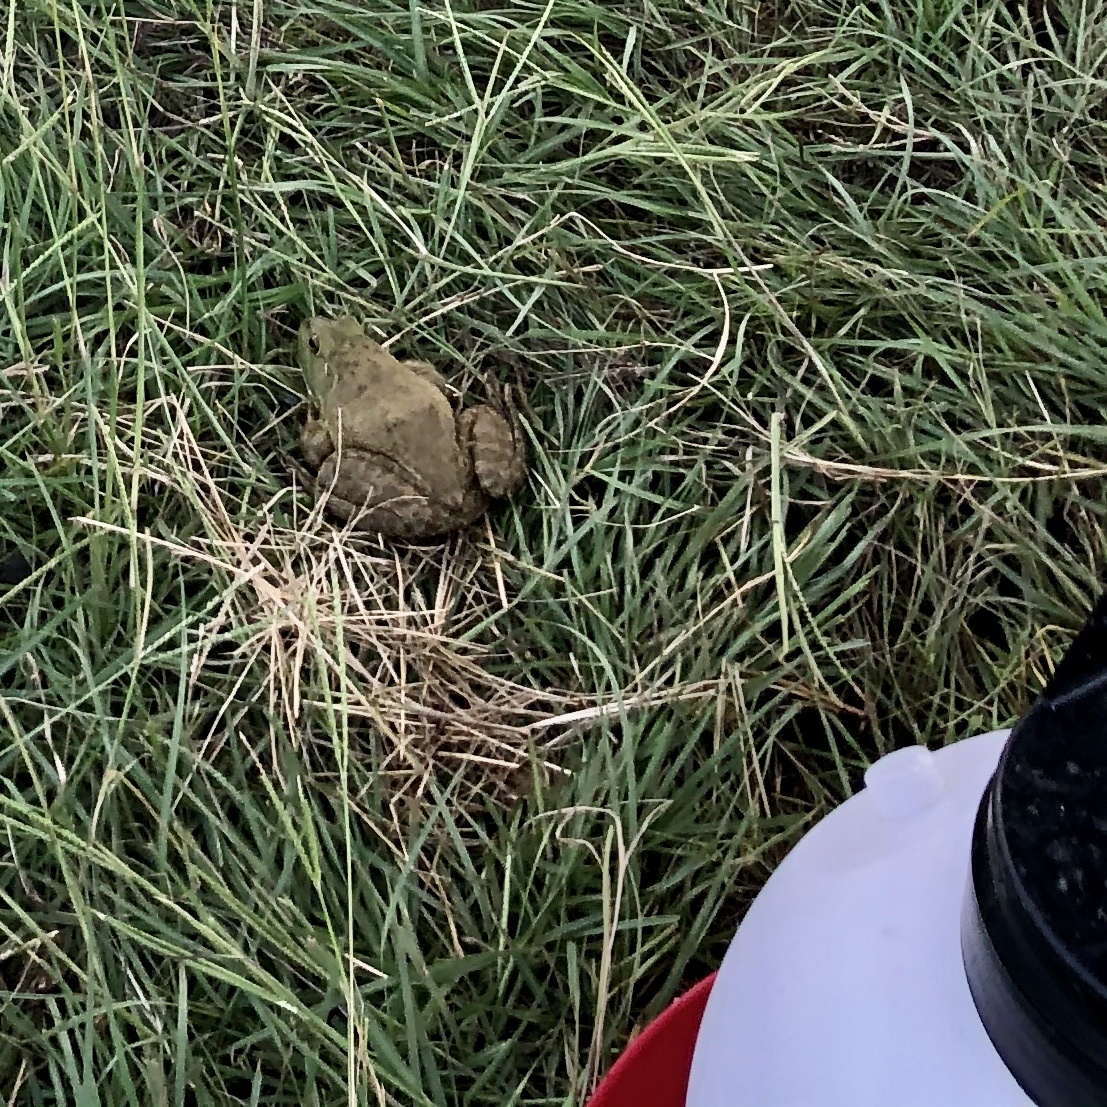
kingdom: Animalia
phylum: Chordata
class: Amphibia
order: Anura
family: Ranidae
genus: Lithobates
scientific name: Lithobates catesbeianus
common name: American bullfrog
